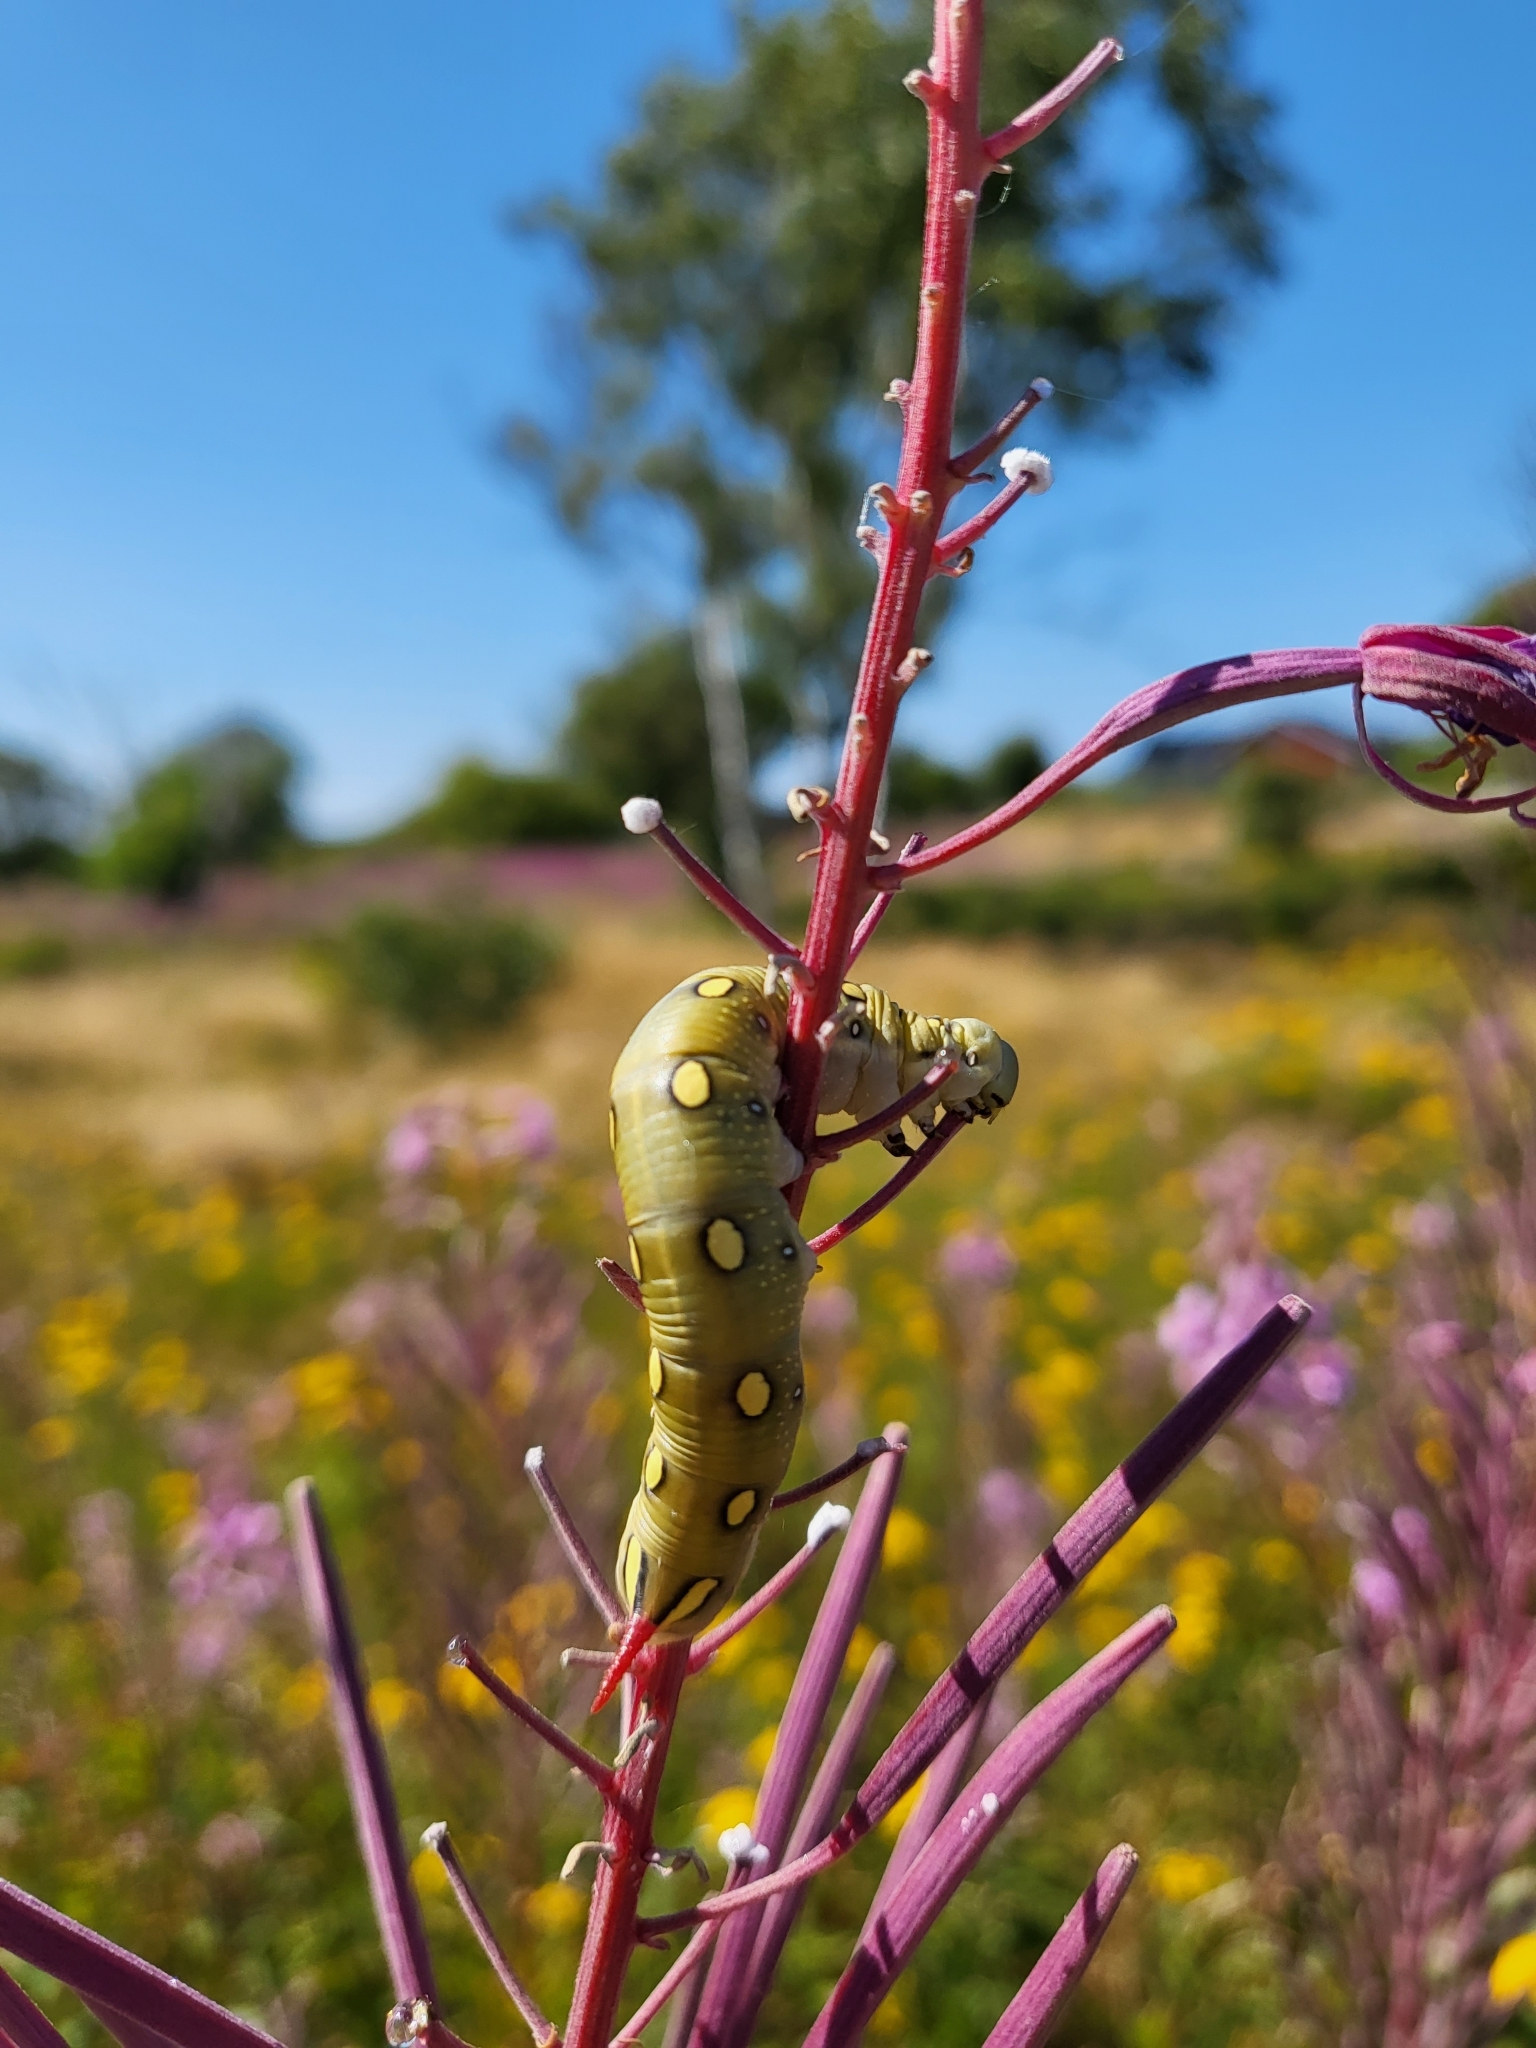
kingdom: Animalia
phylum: Arthropoda
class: Insecta
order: Lepidoptera
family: Sphingidae
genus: Hyles
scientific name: Hyles gallii
